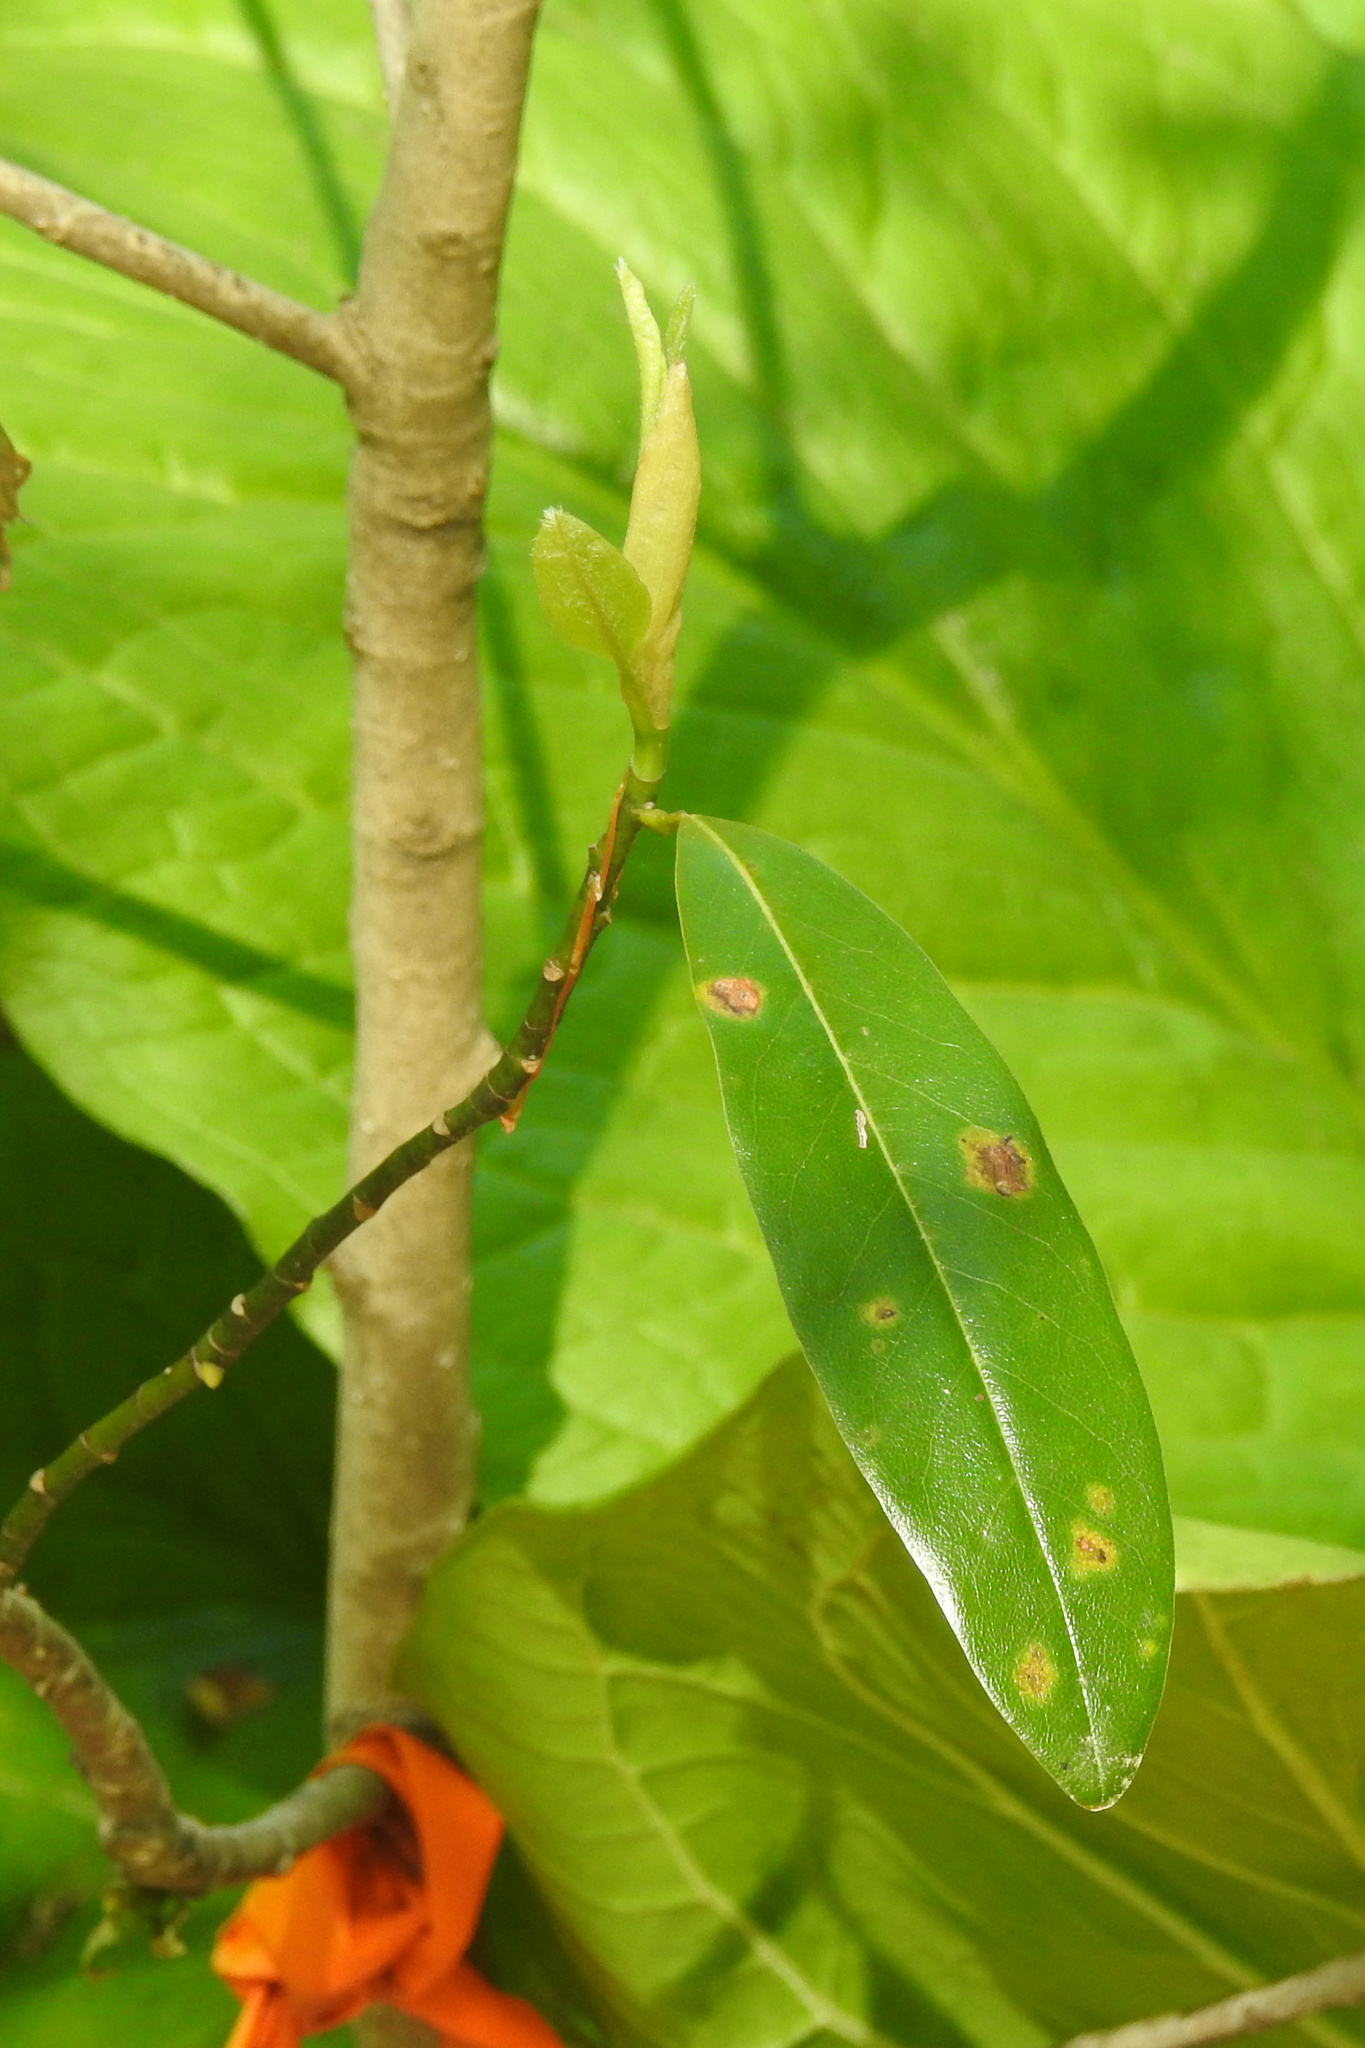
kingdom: Plantae
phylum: Tracheophyta
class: Magnoliopsida
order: Magnoliales
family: Magnoliaceae
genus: Magnolia
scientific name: Magnolia virginiana
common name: Swamp bay
